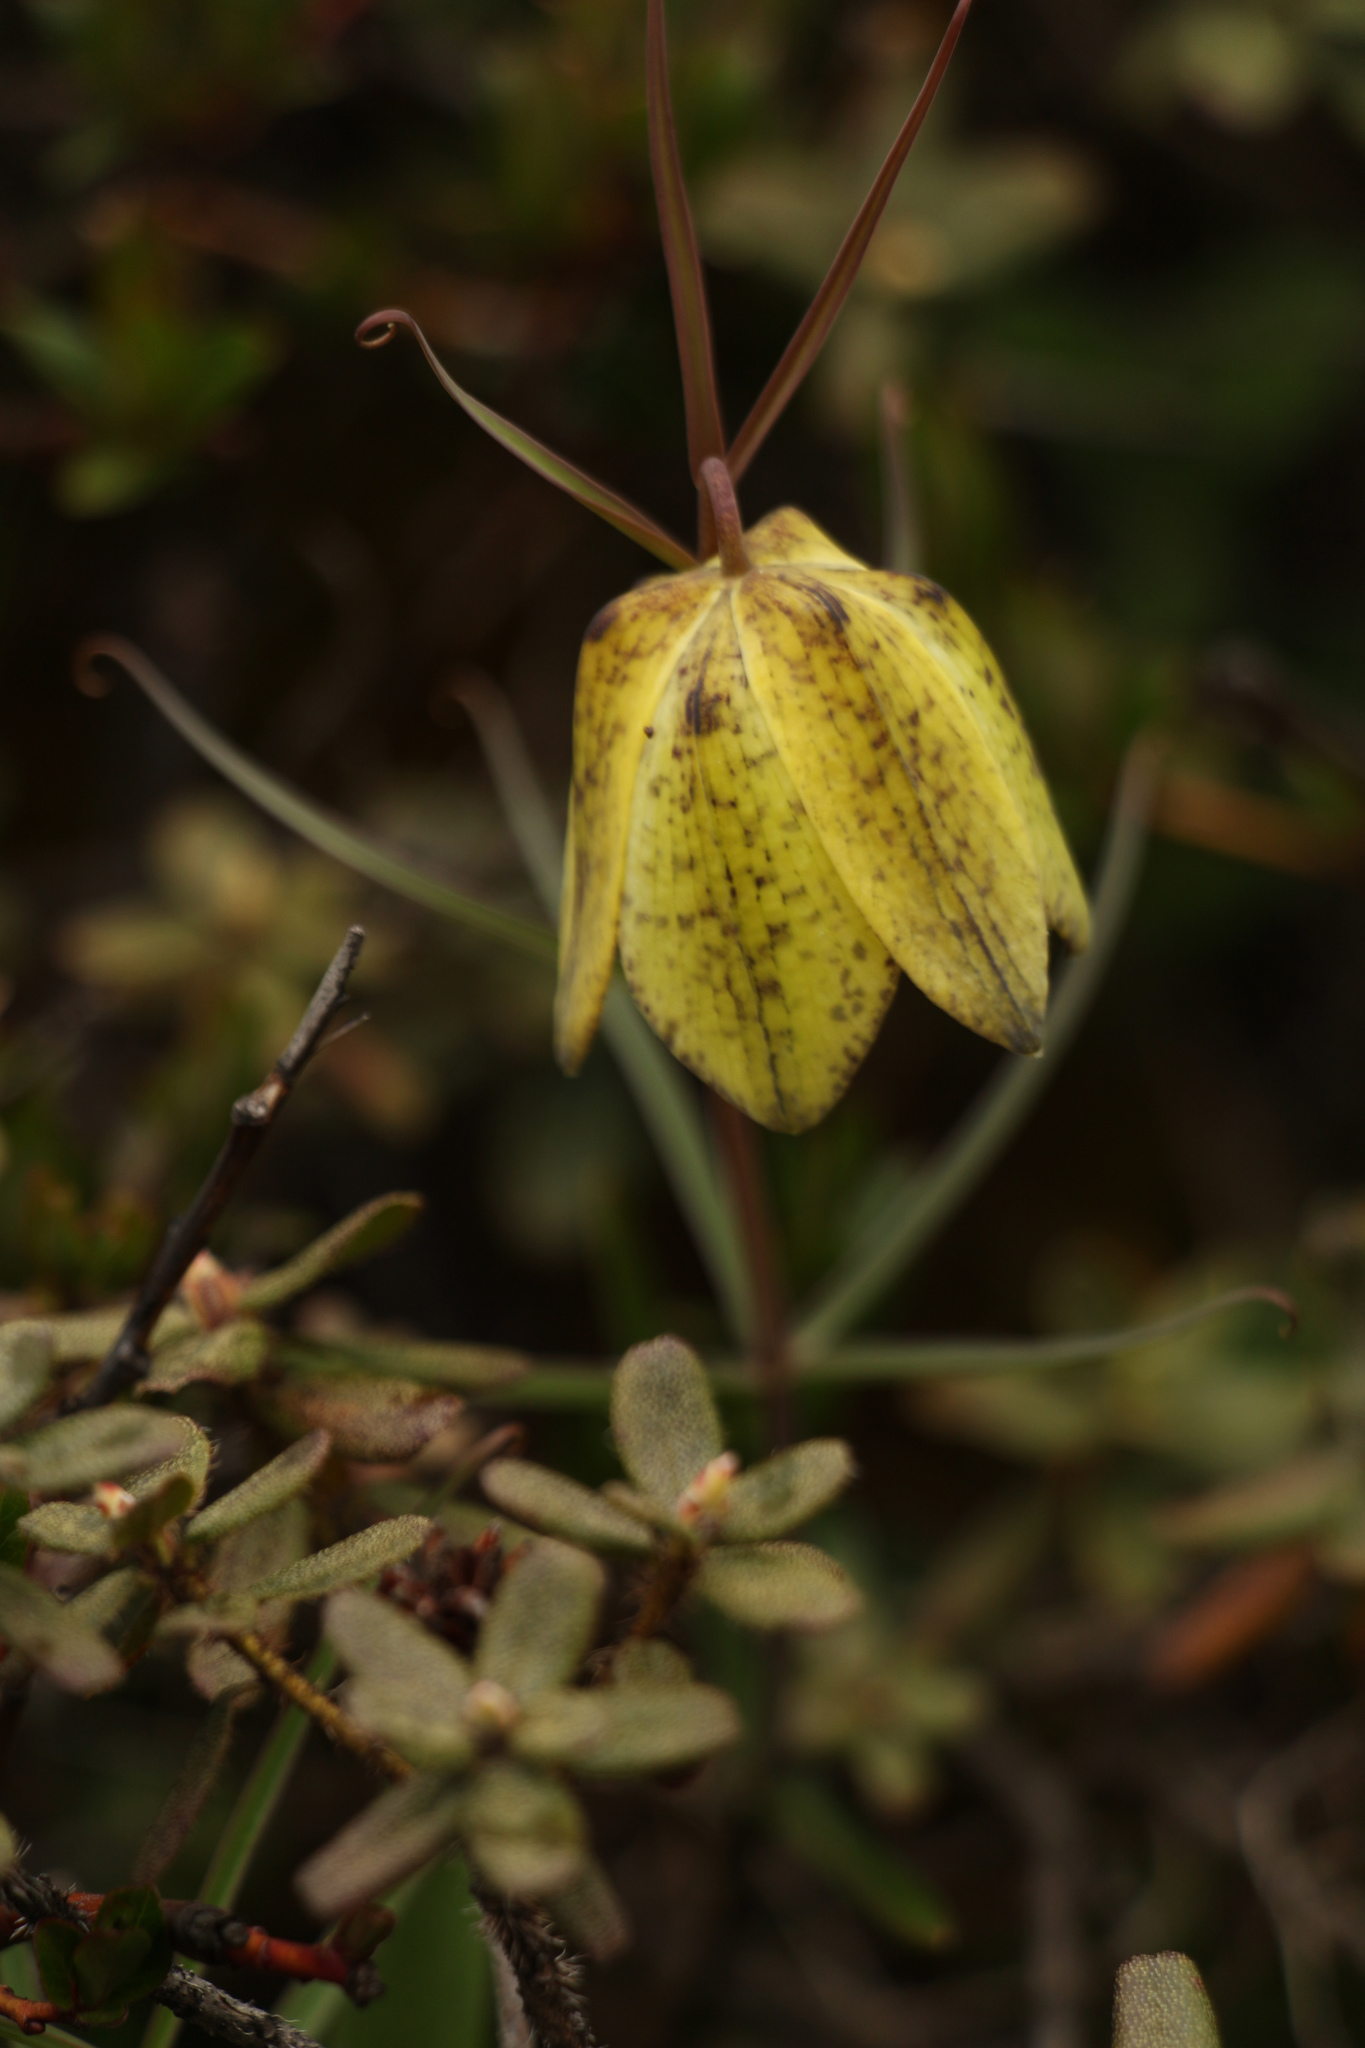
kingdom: Plantae
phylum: Tracheophyta
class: Liliopsida
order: Liliales
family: Liliaceae
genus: Fritillaria
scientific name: Fritillaria cirrhosa
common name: Sichuan fritillary
